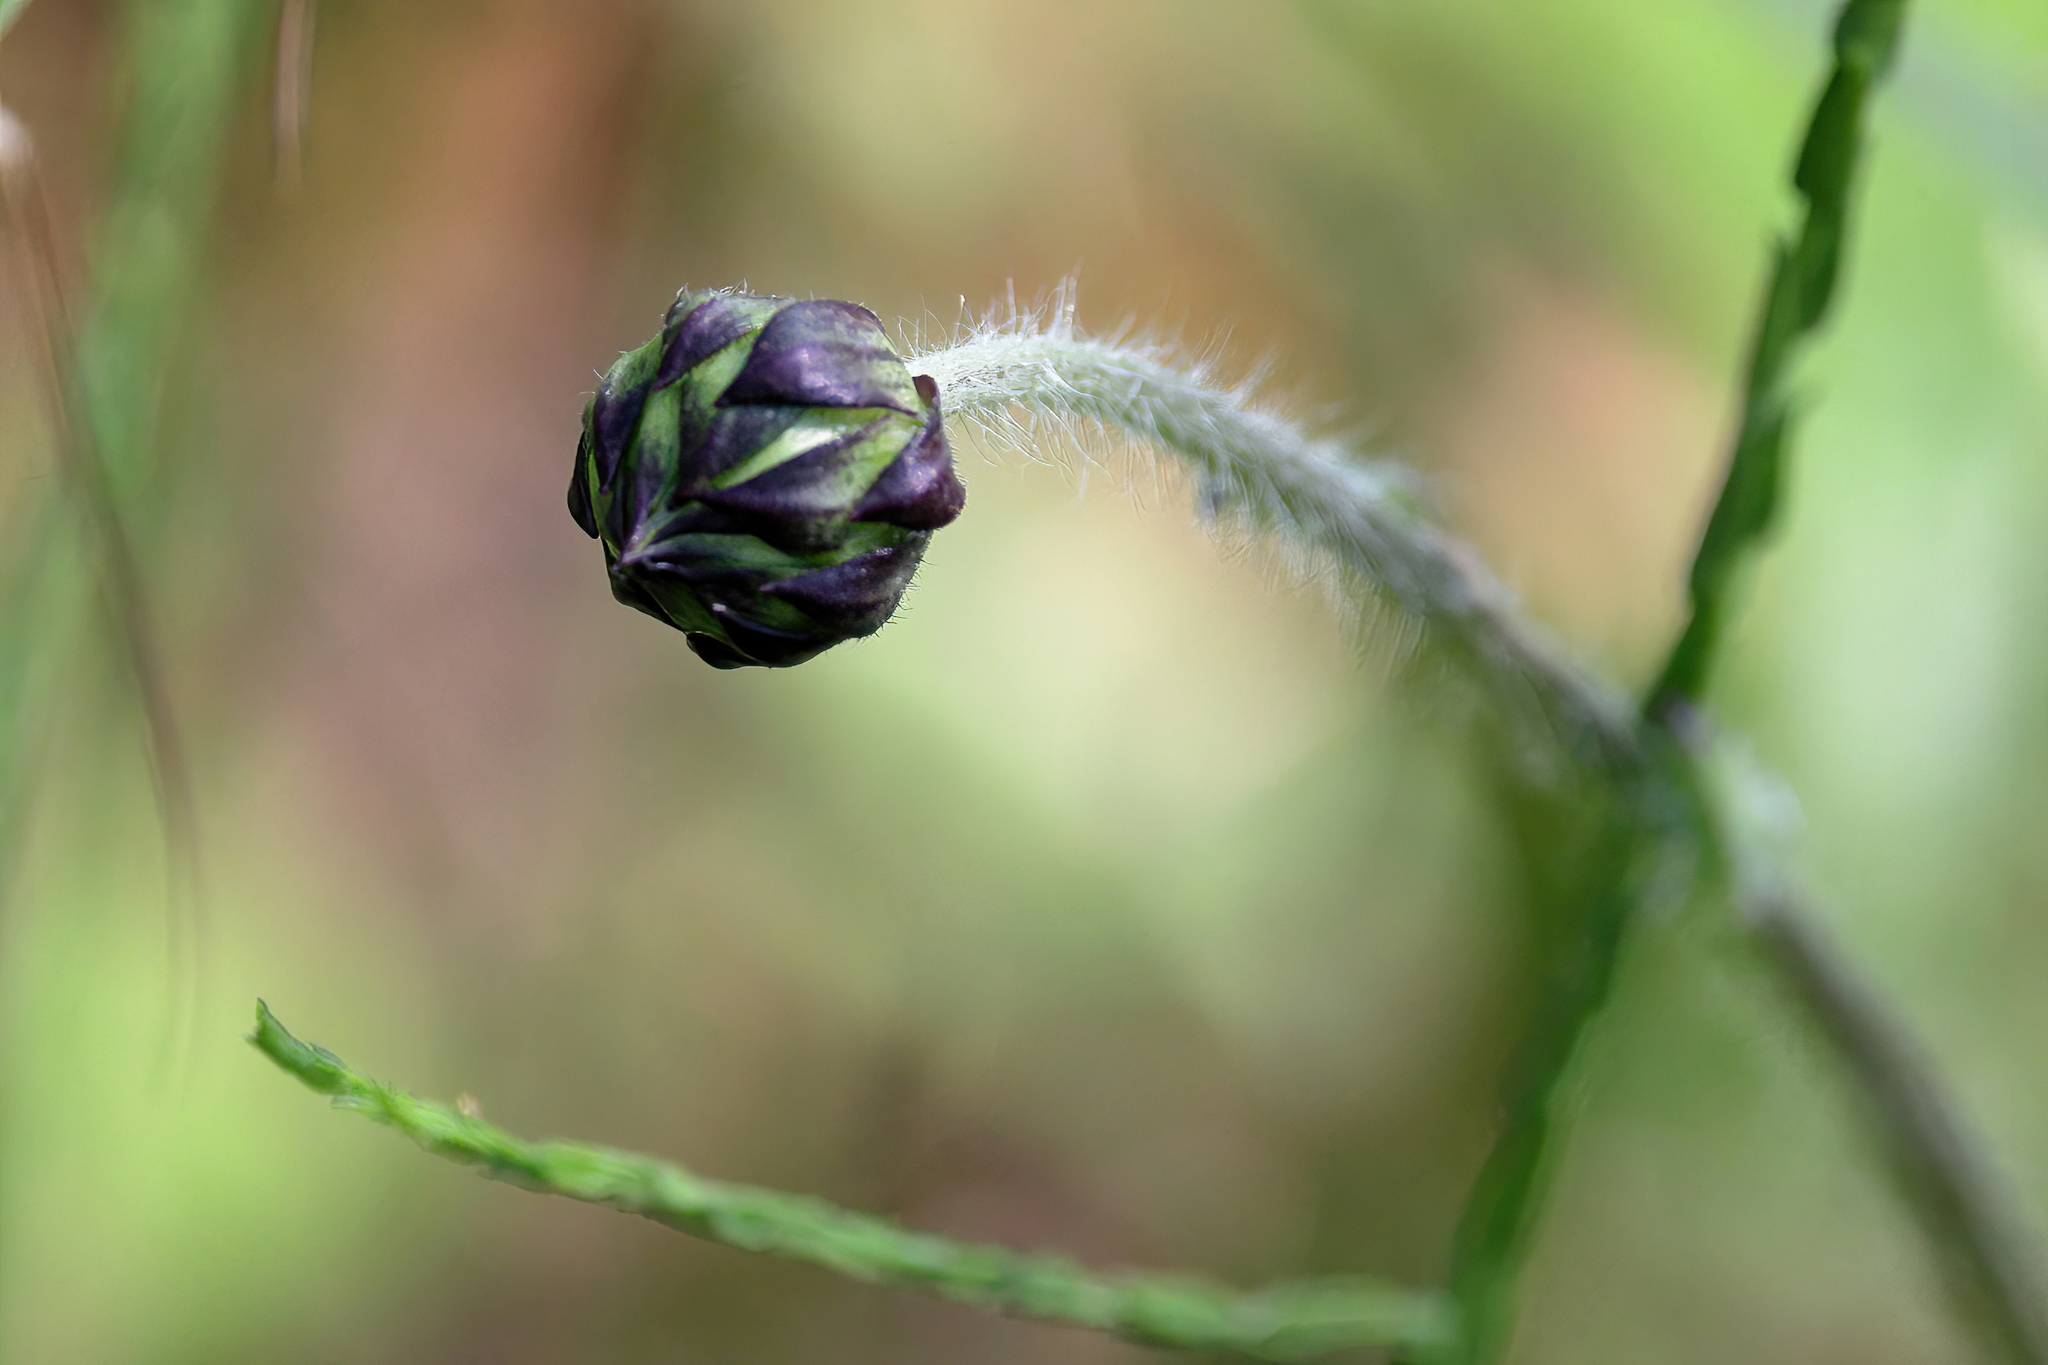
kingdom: Plantae
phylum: Tracheophyta
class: Magnoliopsida
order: Asterales
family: Asteraceae
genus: Helianthus
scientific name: Helianthus radula
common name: Pineland sunflower
